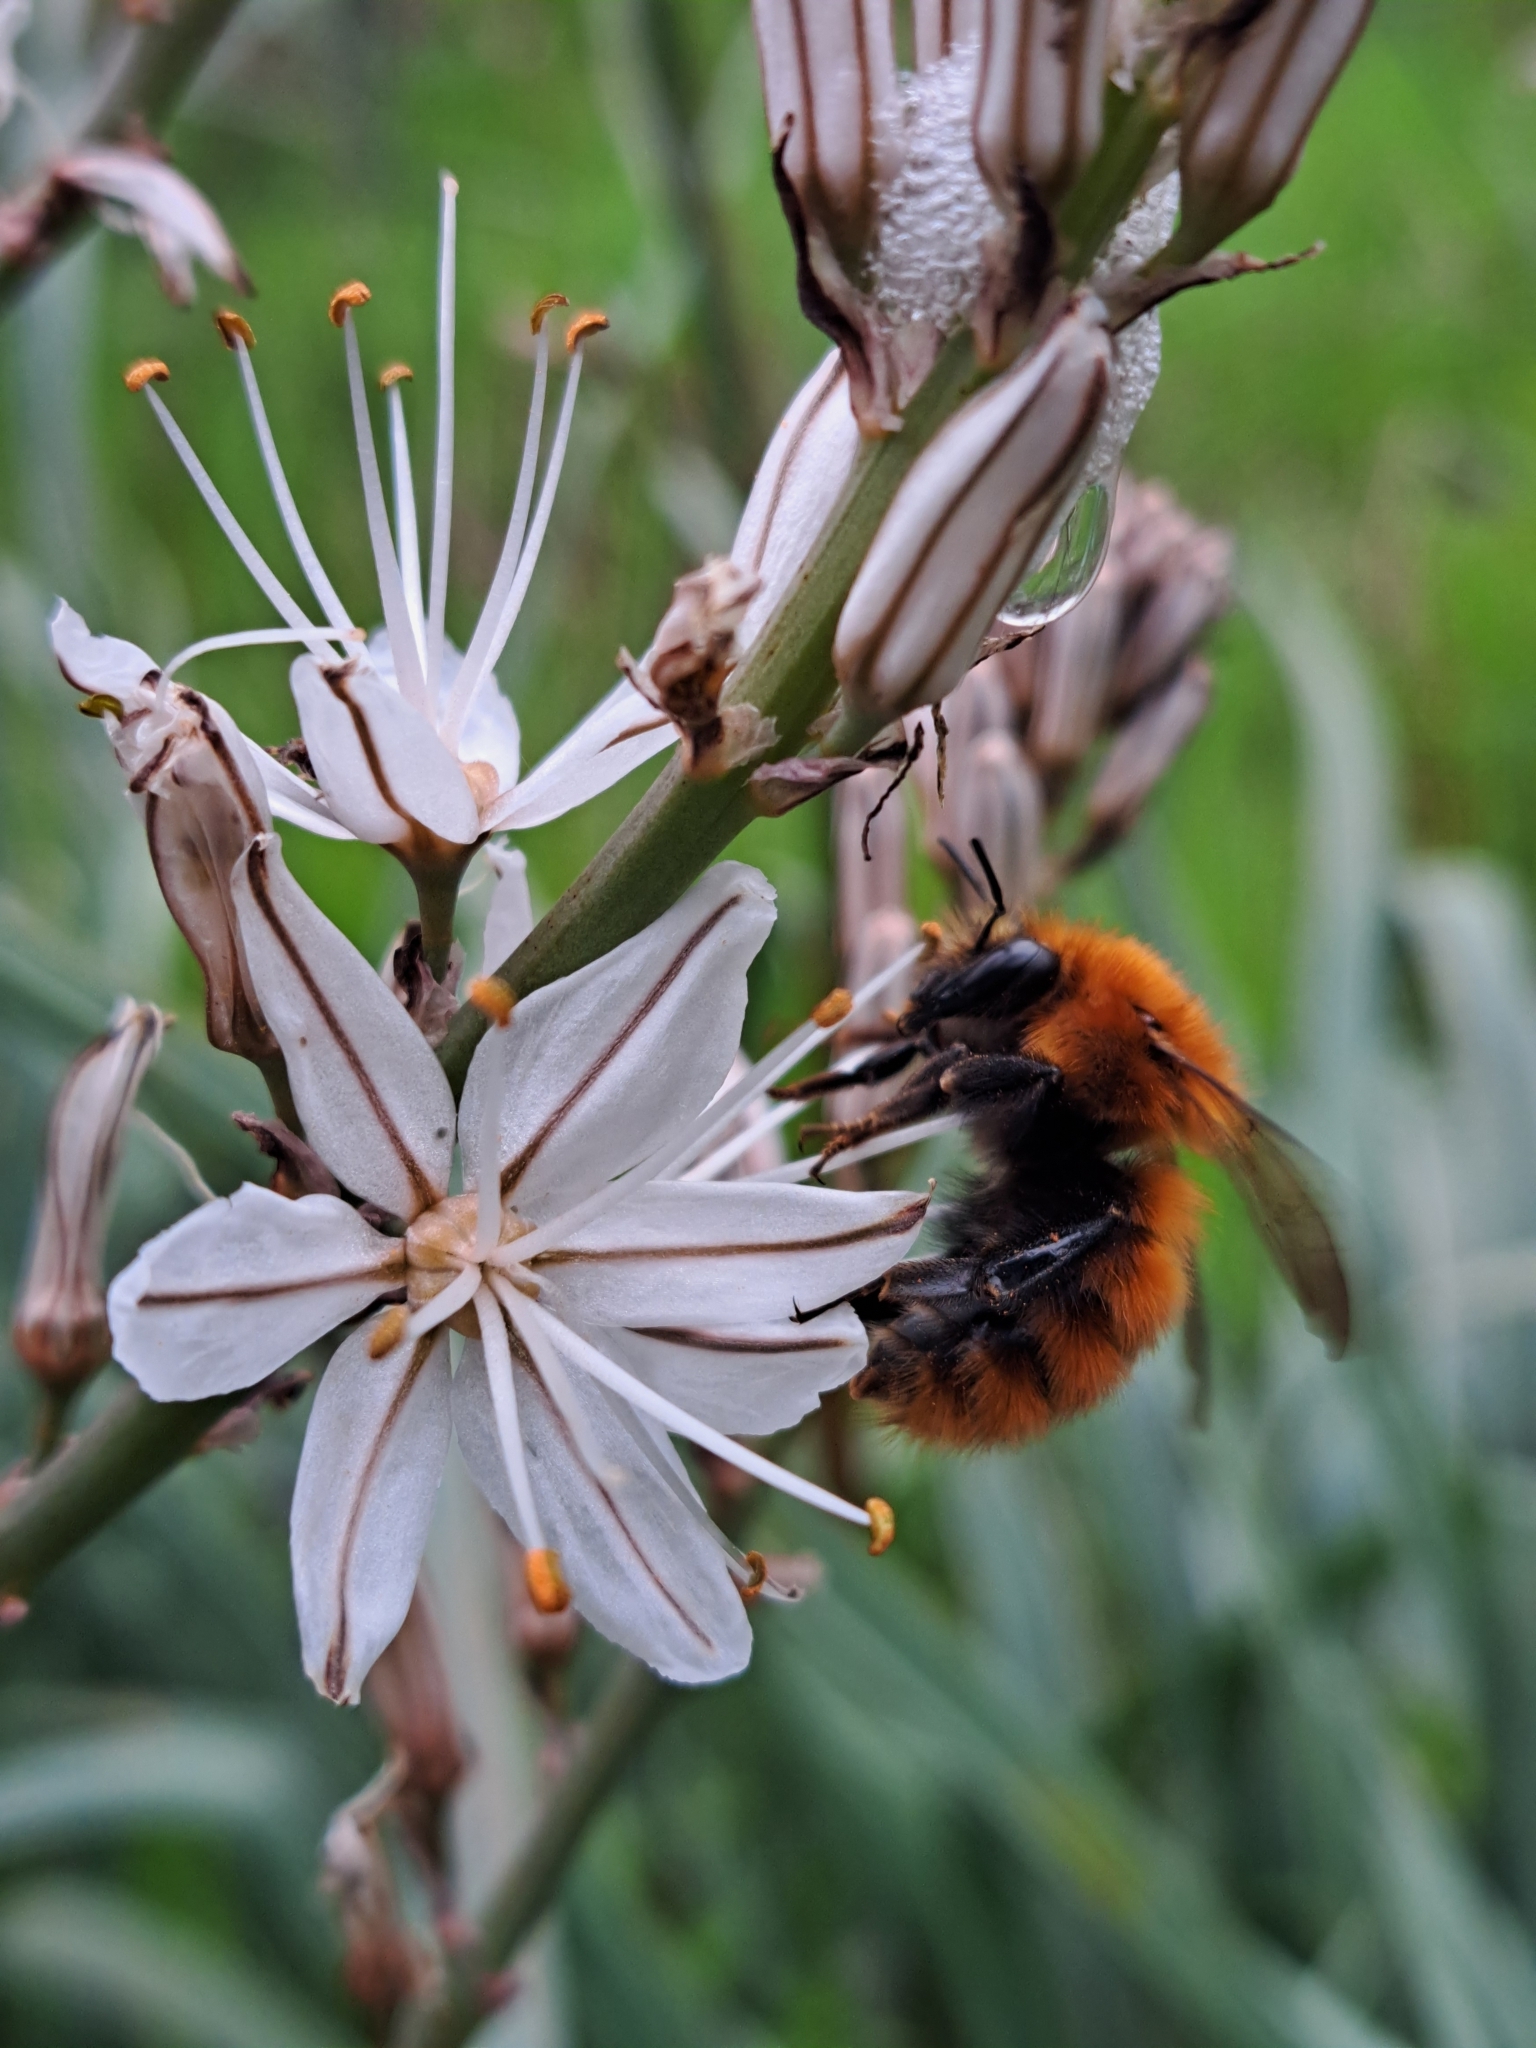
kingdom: Animalia
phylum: Arthropoda
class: Insecta
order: Hymenoptera
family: Apidae
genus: Bombus
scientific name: Bombus pascuorum
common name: Common carder bee
